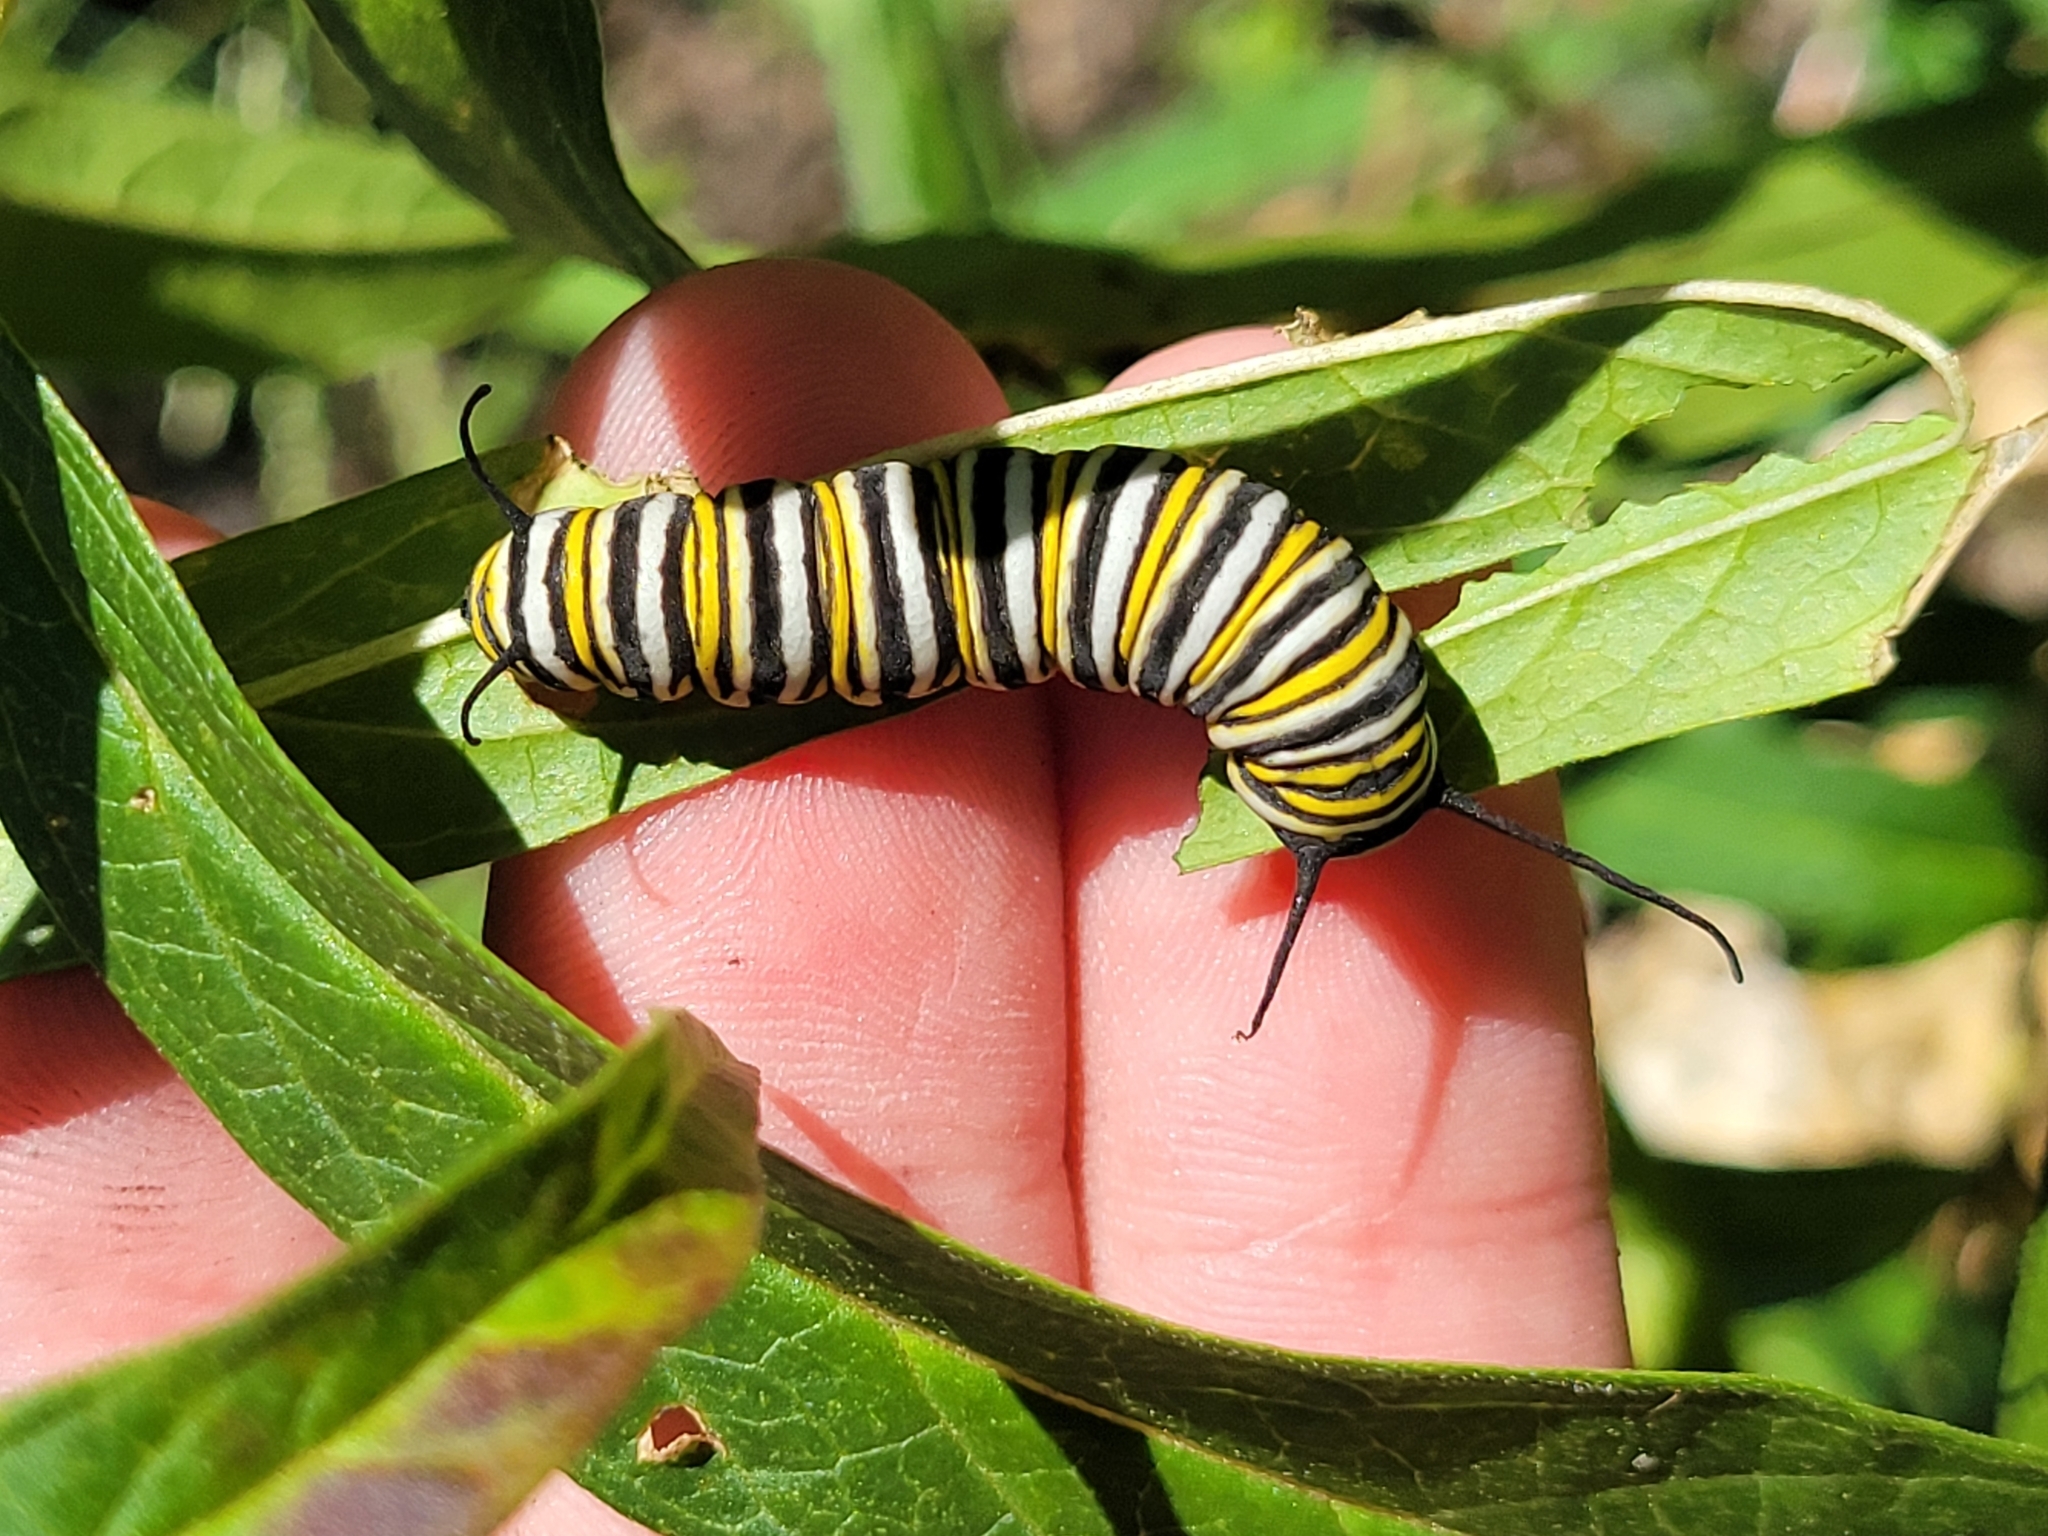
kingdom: Animalia
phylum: Arthropoda
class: Insecta
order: Lepidoptera
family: Nymphalidae
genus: Danaus
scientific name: Danaus plexippus
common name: Monarch
